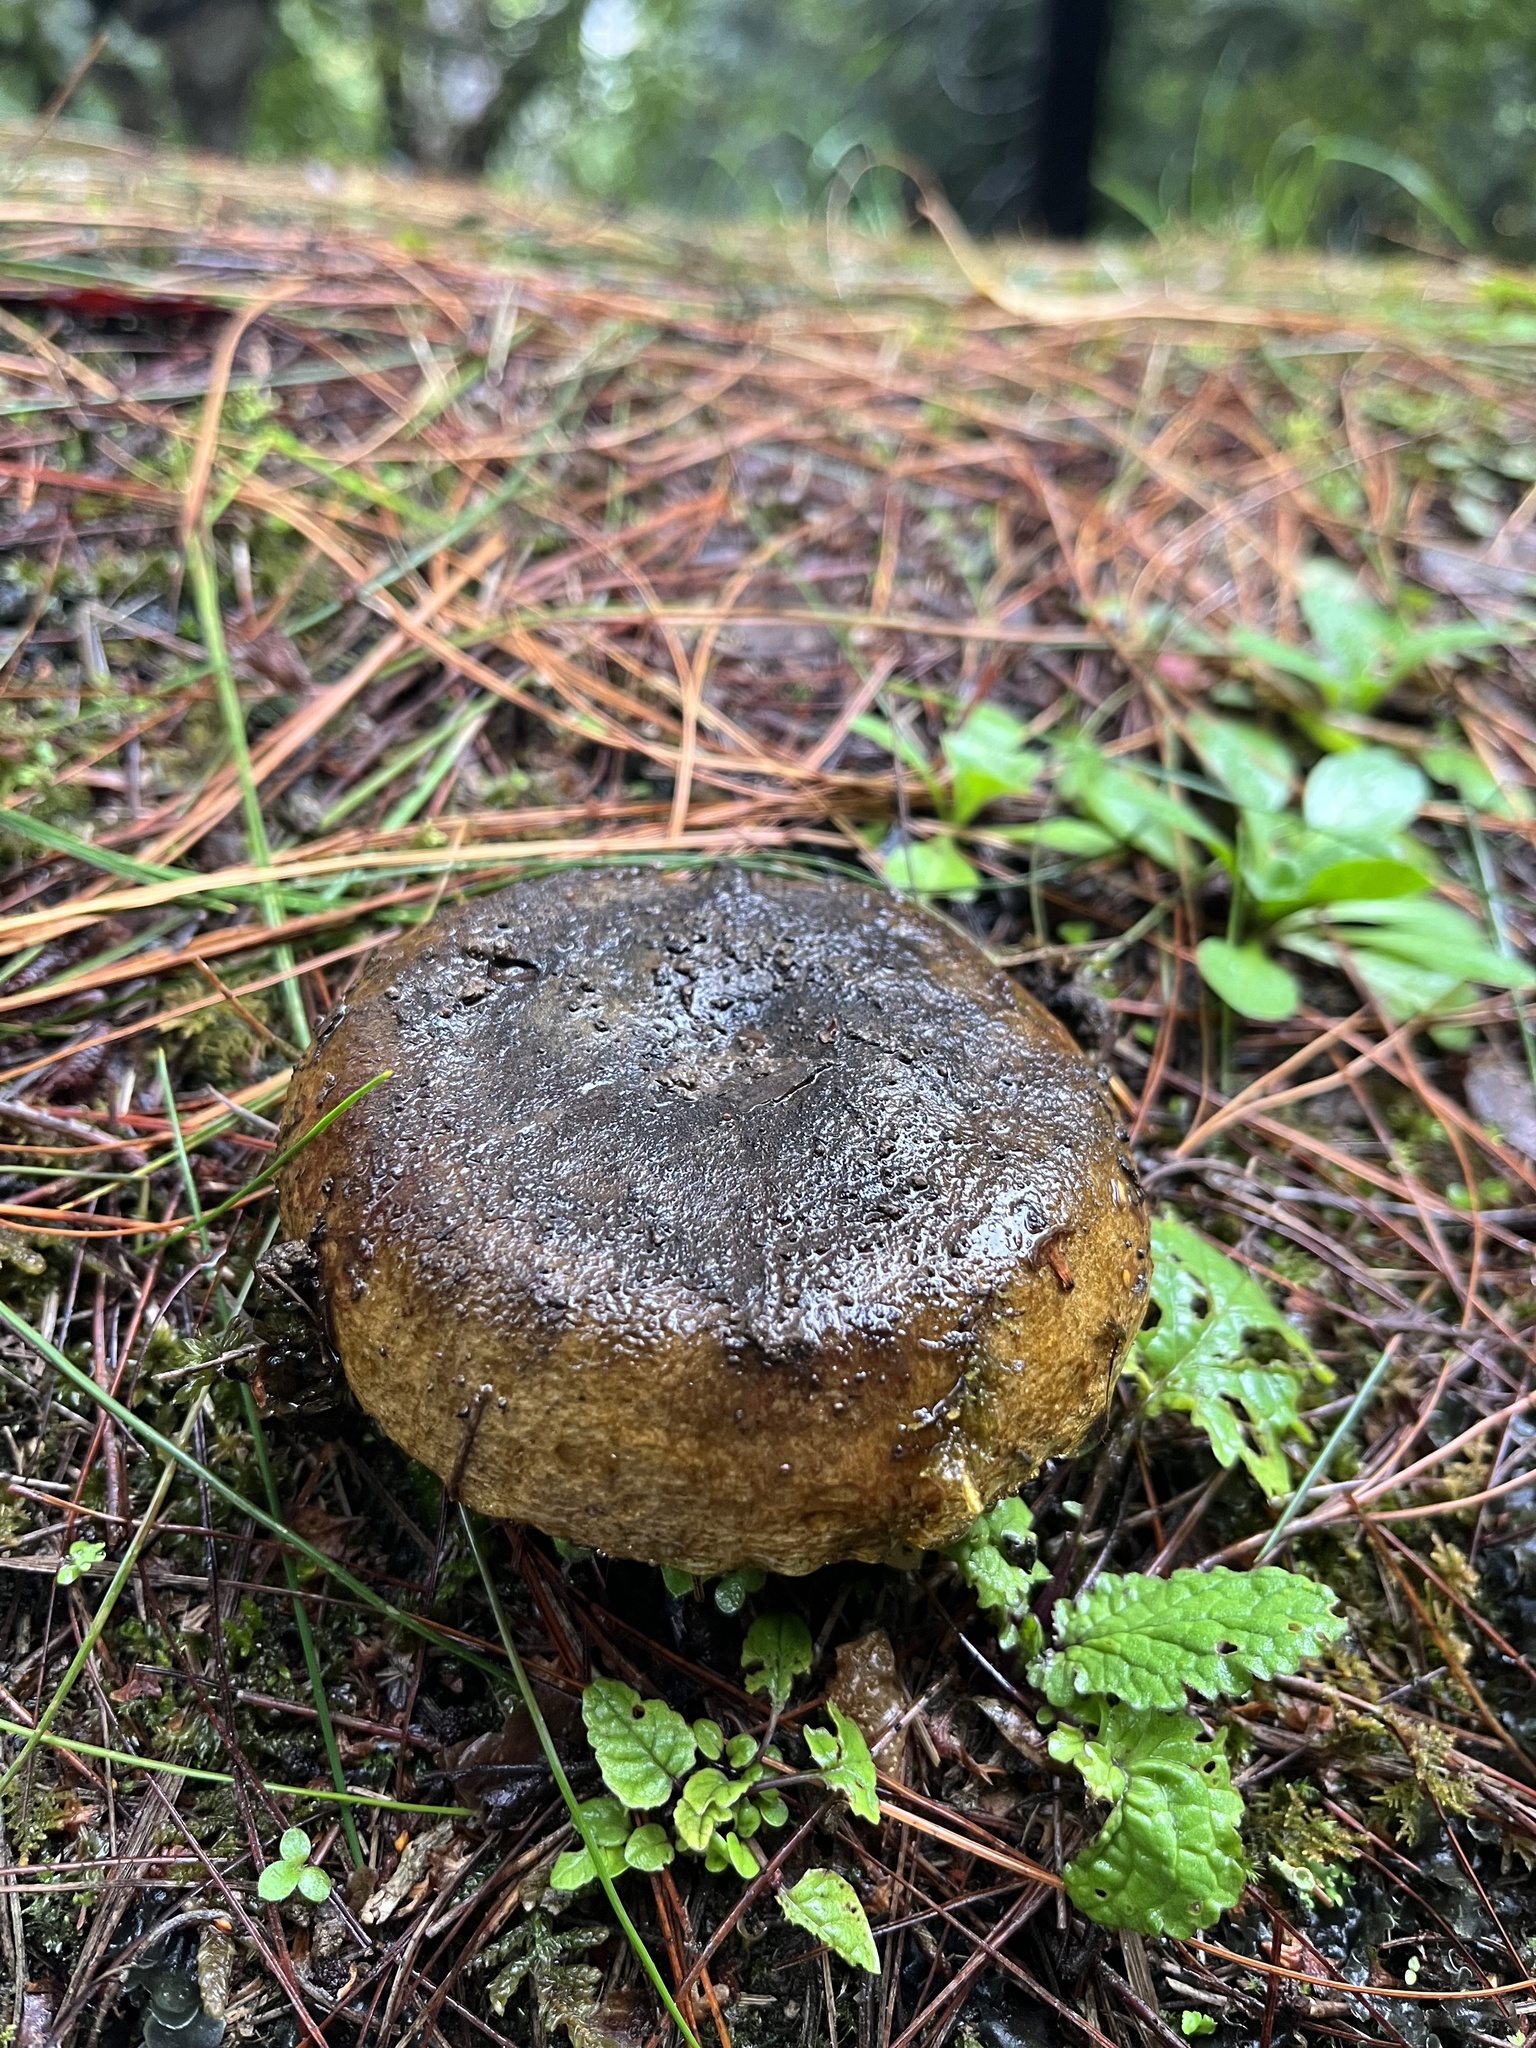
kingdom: Fungi
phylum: Basidiomycota
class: Agaricomycetes
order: Russulales
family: Russulaceae
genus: Lactarius
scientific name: Lactarius turpis
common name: Ugly milk-cap
